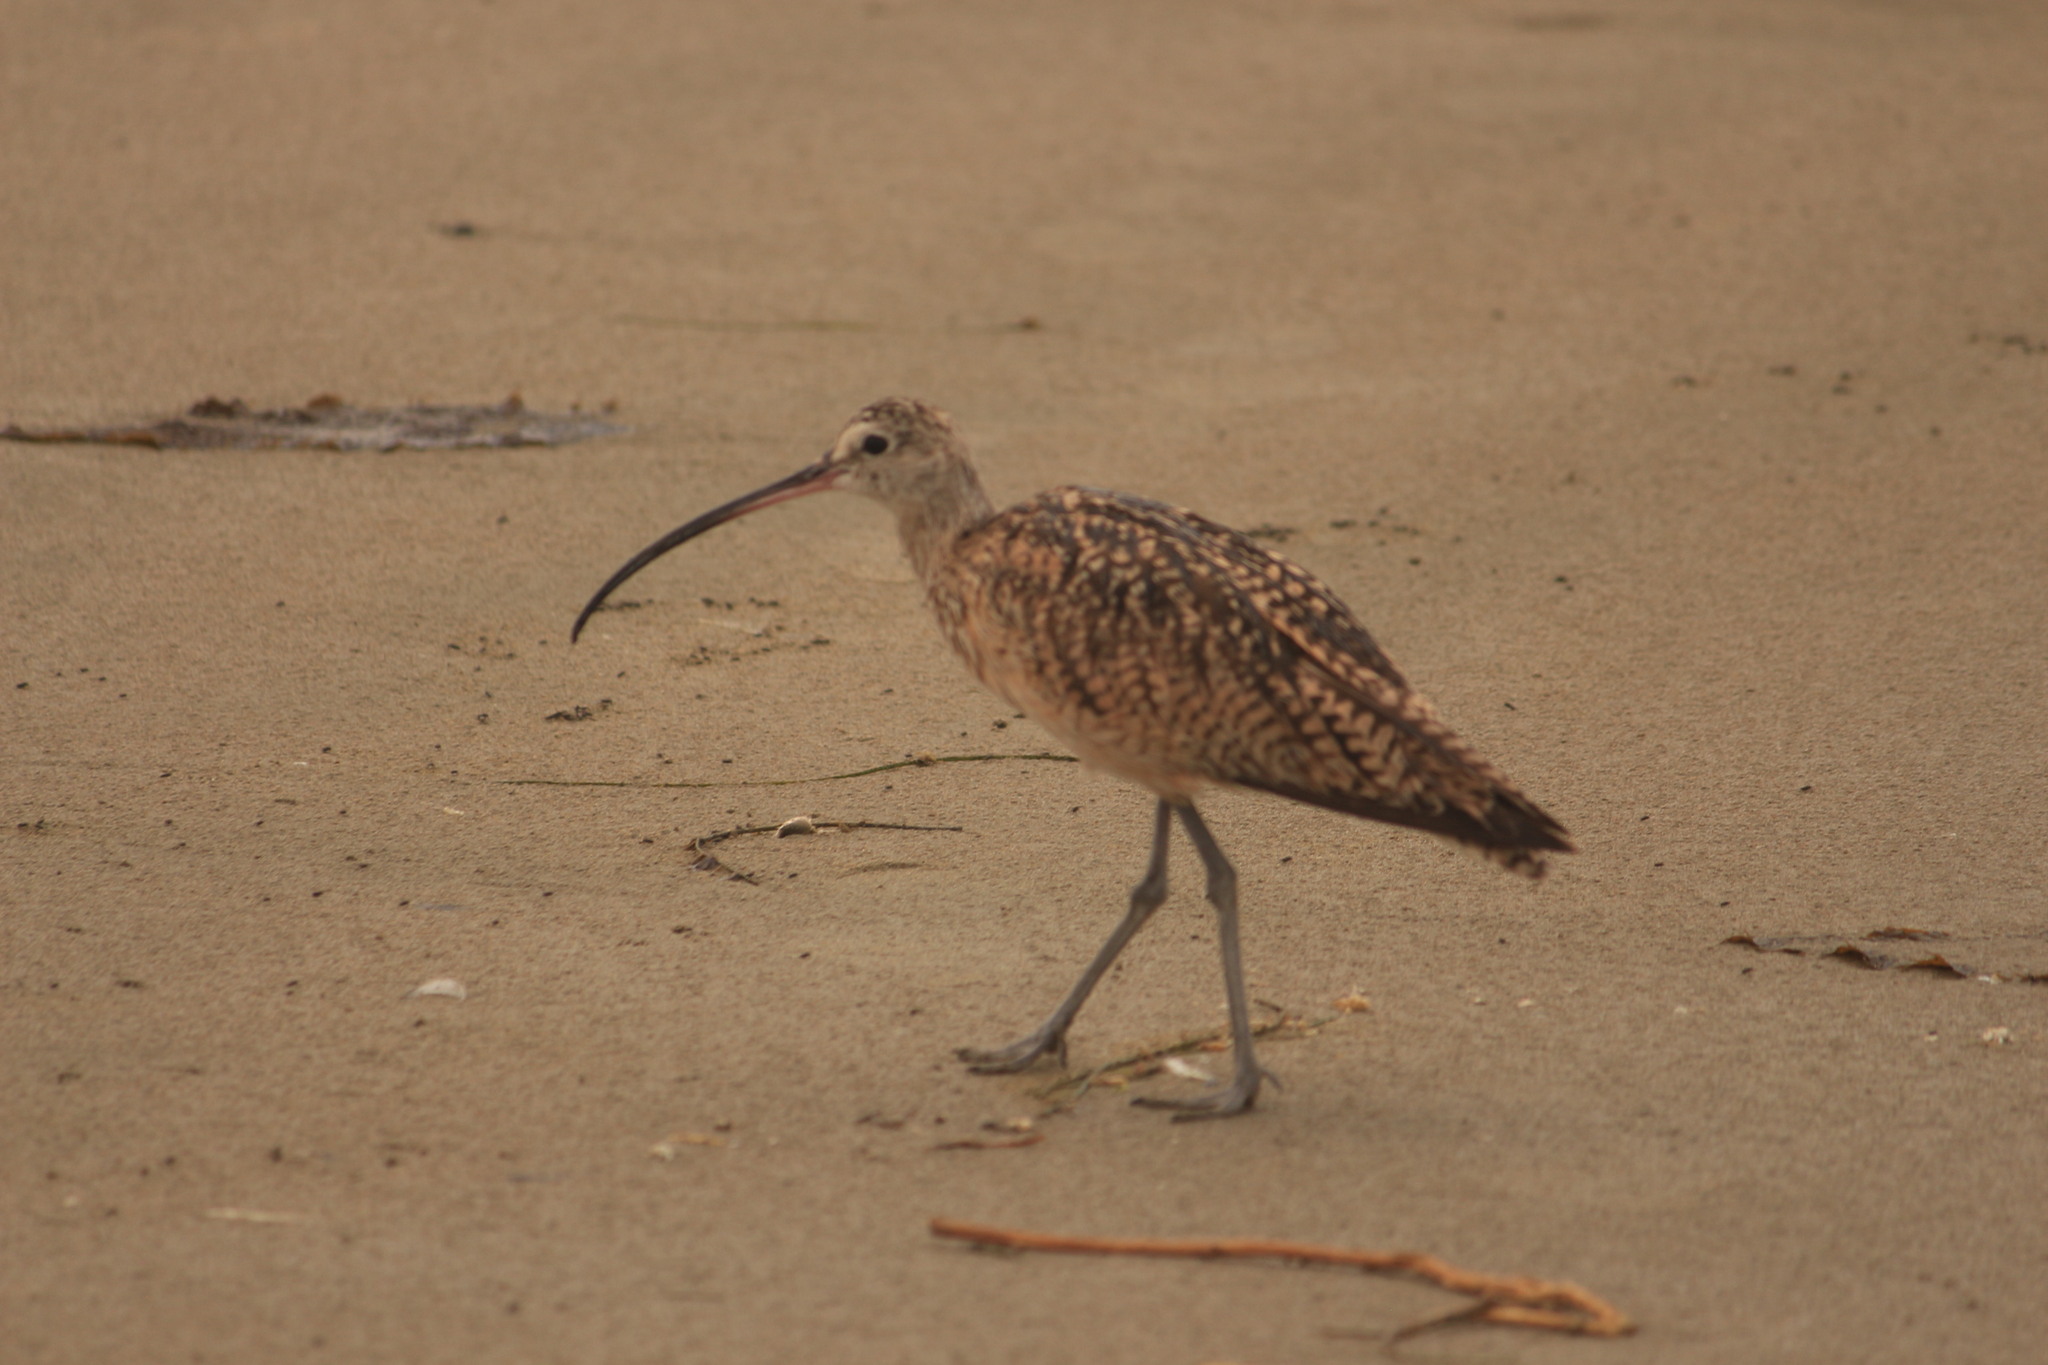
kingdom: Animalia
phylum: Chordata
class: Aves
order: Charadriiformes
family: Scolopacidae
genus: Numenius
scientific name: Numenius americanus
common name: Long-billed curlew
